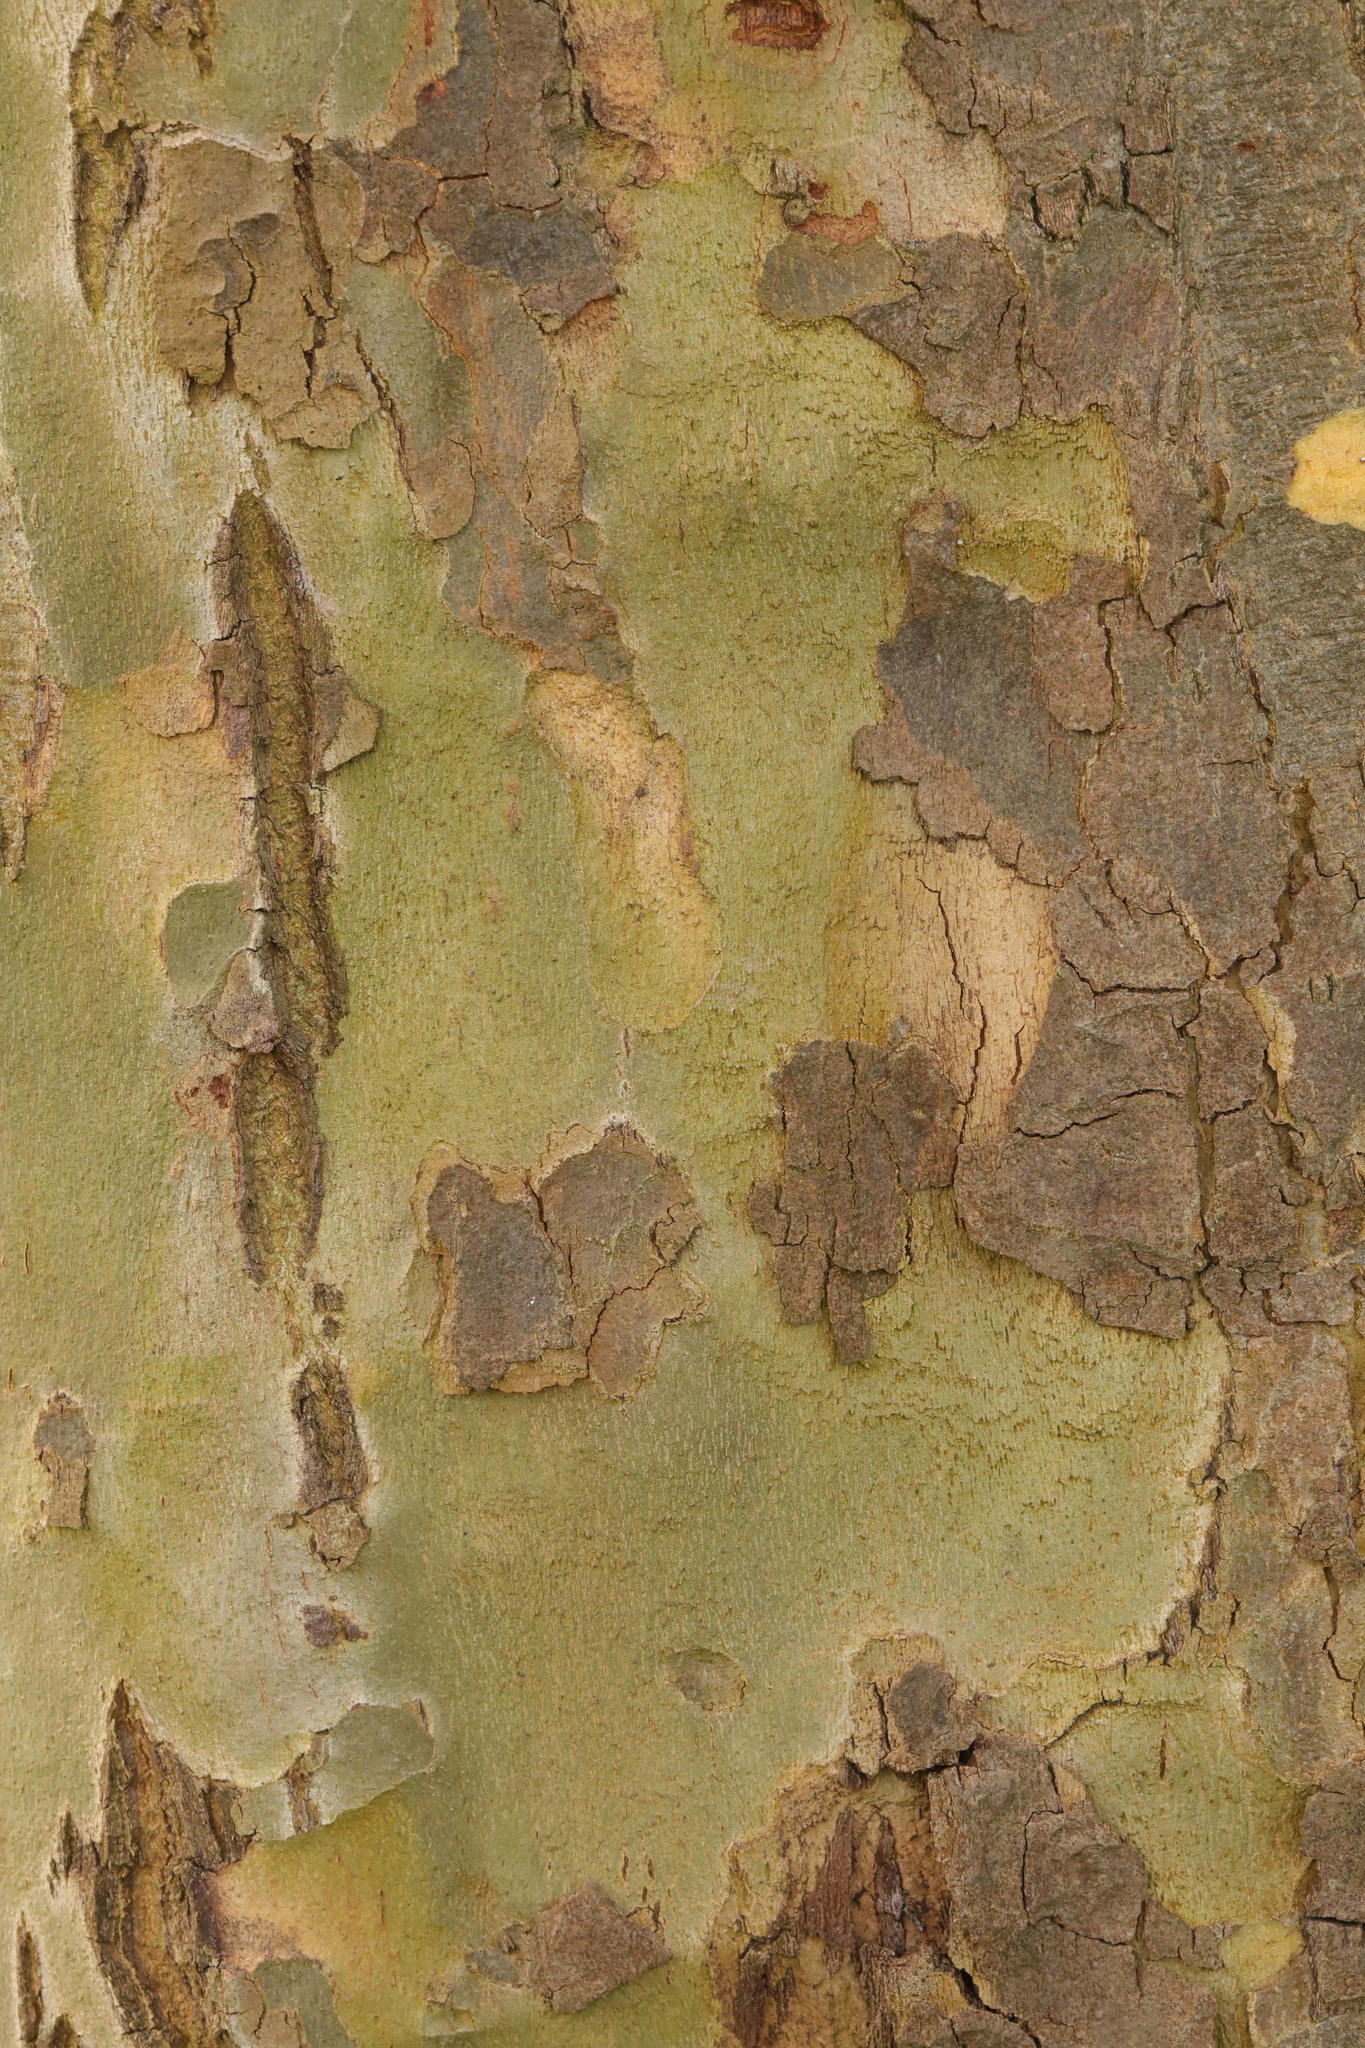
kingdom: Plantae
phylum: Tracheophyta
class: Magnoliopsida
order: Proteales
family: Platanaceae
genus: Platanus
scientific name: Platanus hispanica
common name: London plane
